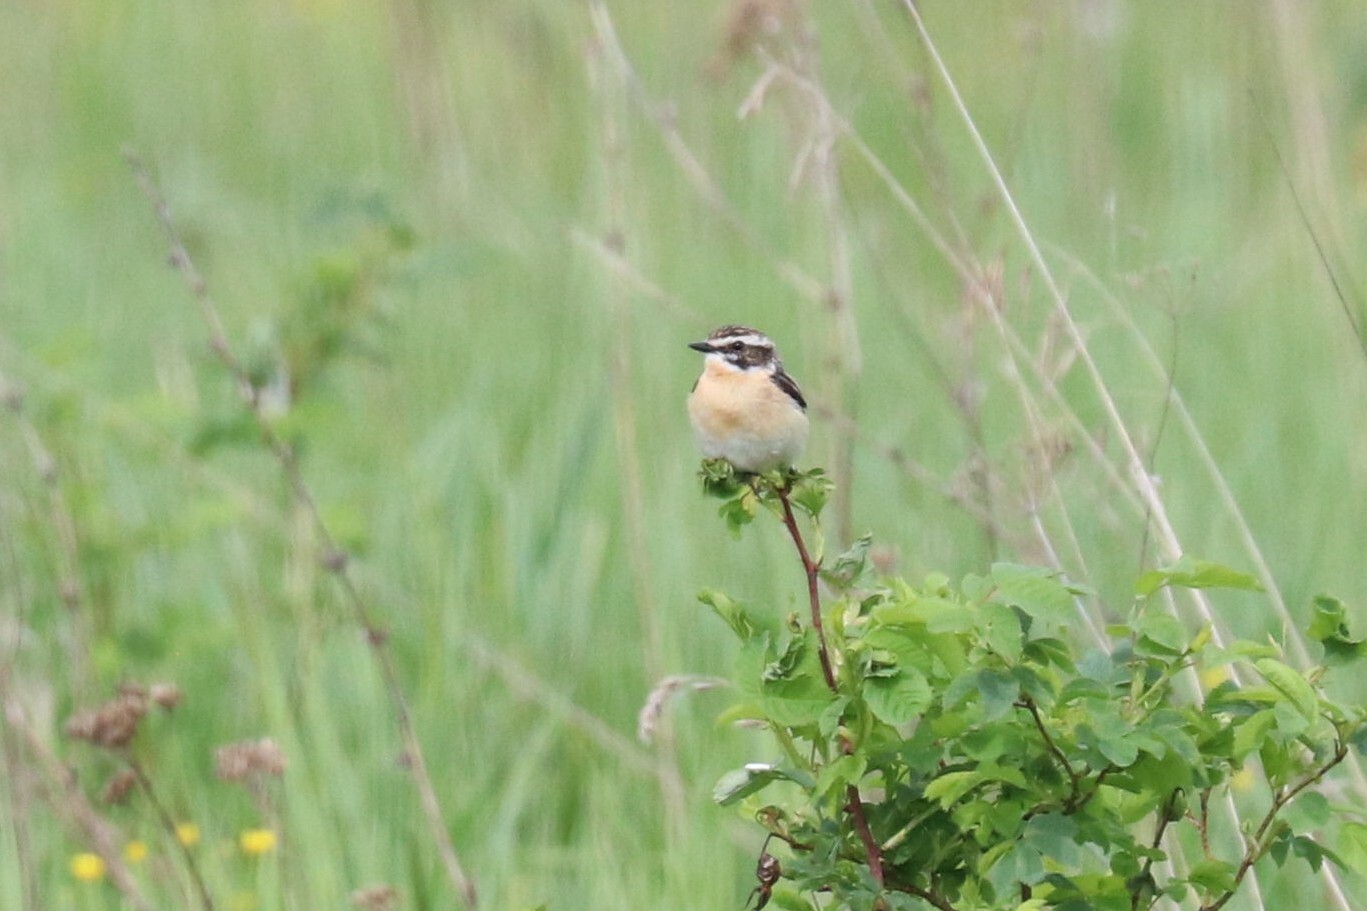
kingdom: Animalia
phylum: Chordata
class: Aves
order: Passeriformes
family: Muscicapidae
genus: Saxicola
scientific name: Saxicola rubetra
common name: Whinchat
